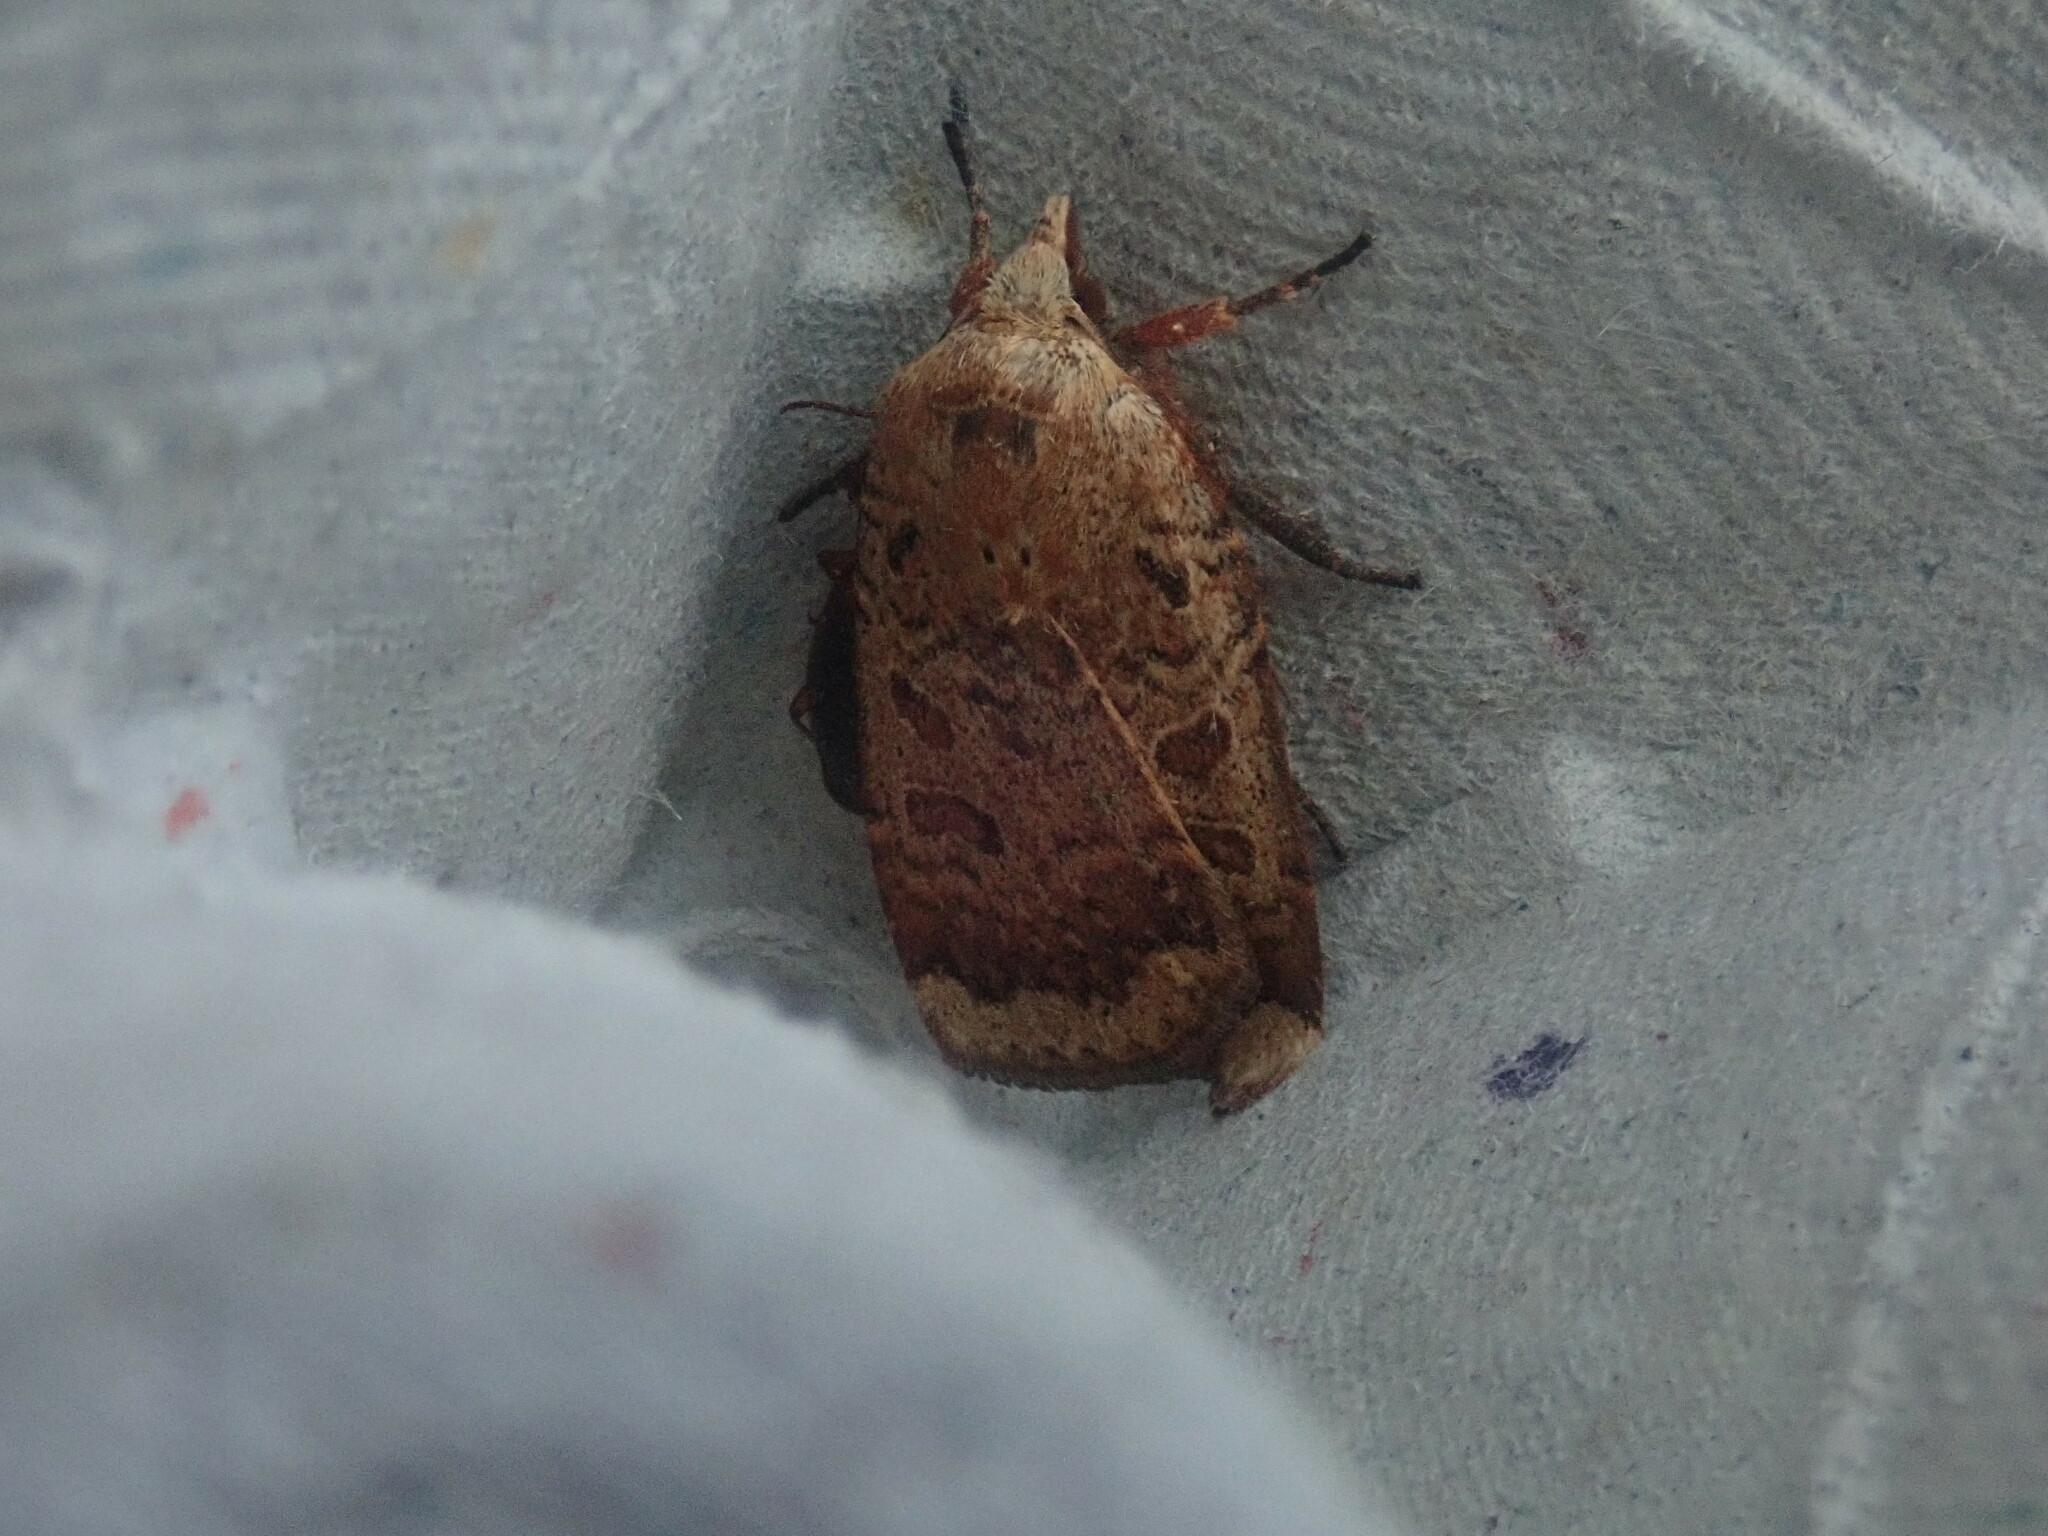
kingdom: Animalia
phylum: Arthropoda
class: Insecta
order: Lepidoptera
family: Noctuidae
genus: Abagrotis
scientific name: Abagrotis alternata
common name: Greater red dart
